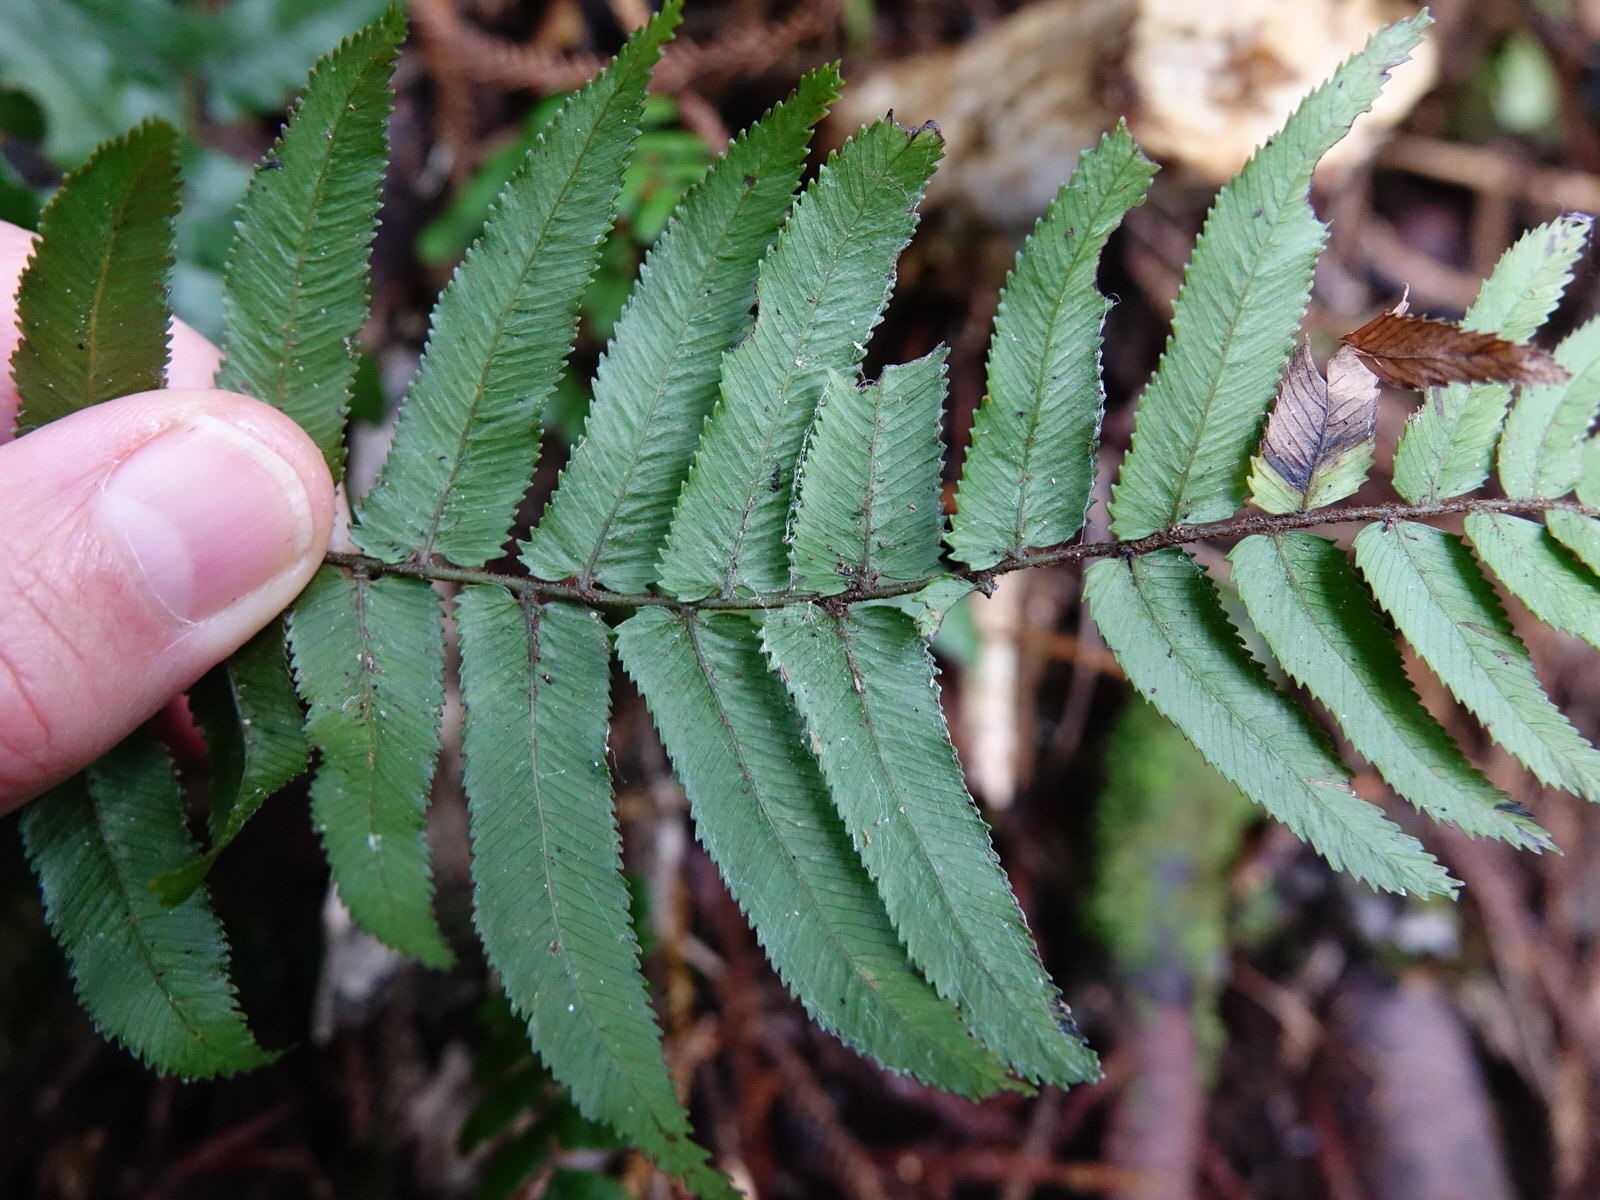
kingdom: Plantae
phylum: Tracheophyta
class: Polypodiopsida
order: Polypodiales
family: Blechnaceae
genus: Icarus
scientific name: Icarus filiformis
